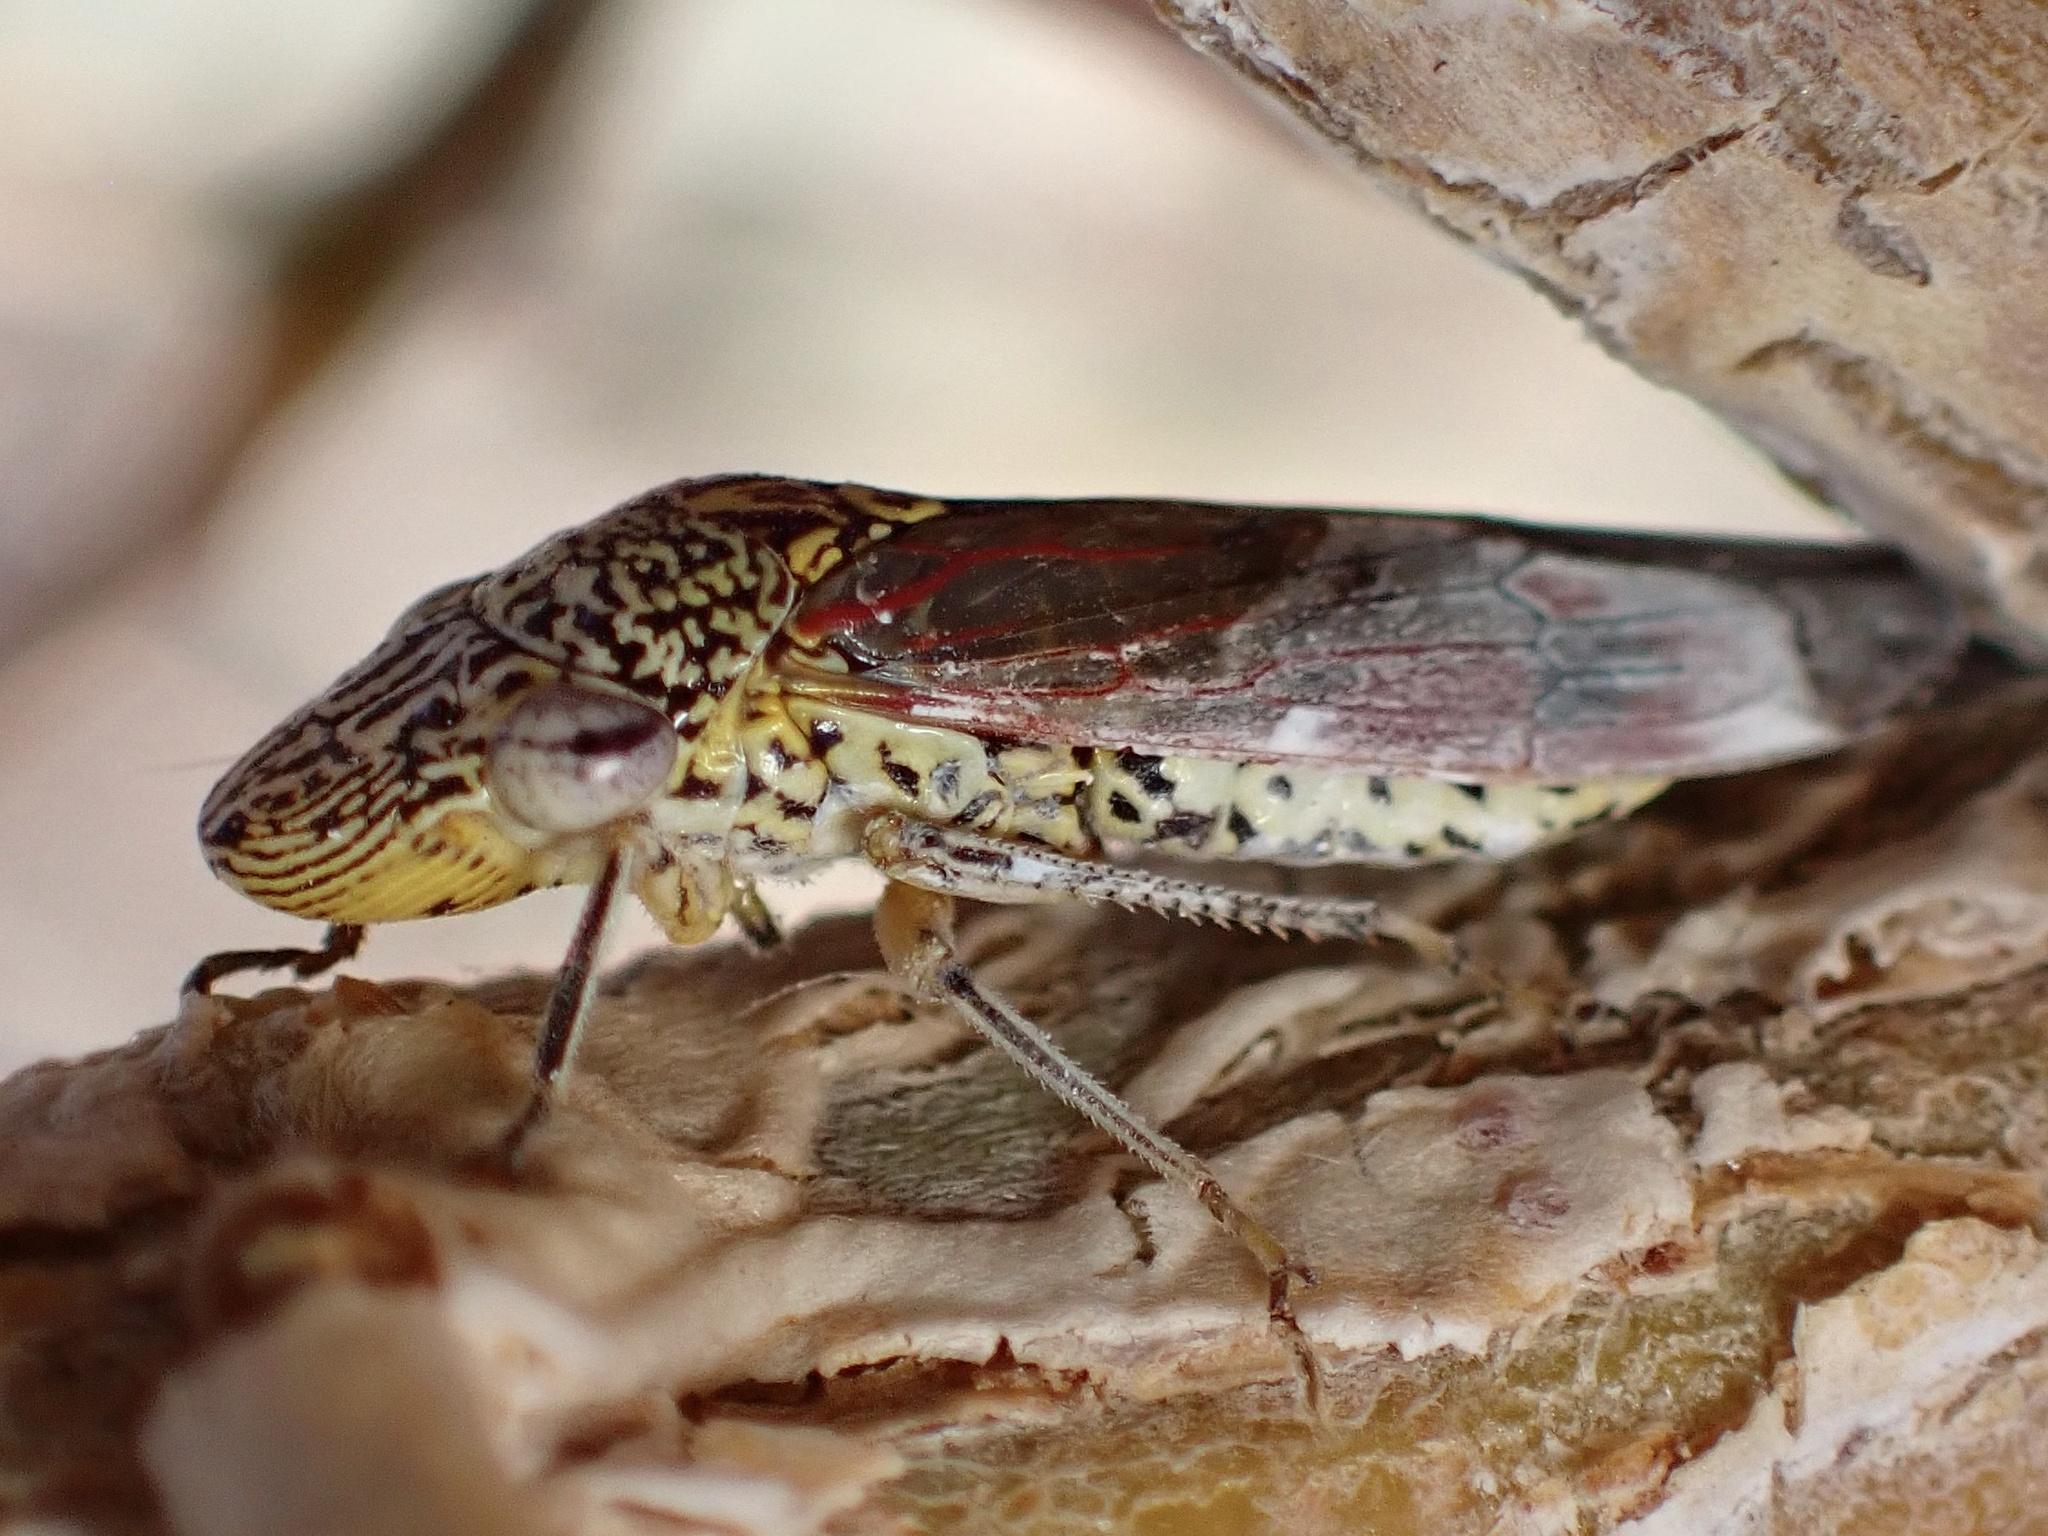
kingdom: Animalia
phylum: Arthropoda
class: Insecta
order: Hemiptera
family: Cicadellidae
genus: Homalodisca
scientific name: Homalodisca liturata
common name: Lacertate sharpshooter
